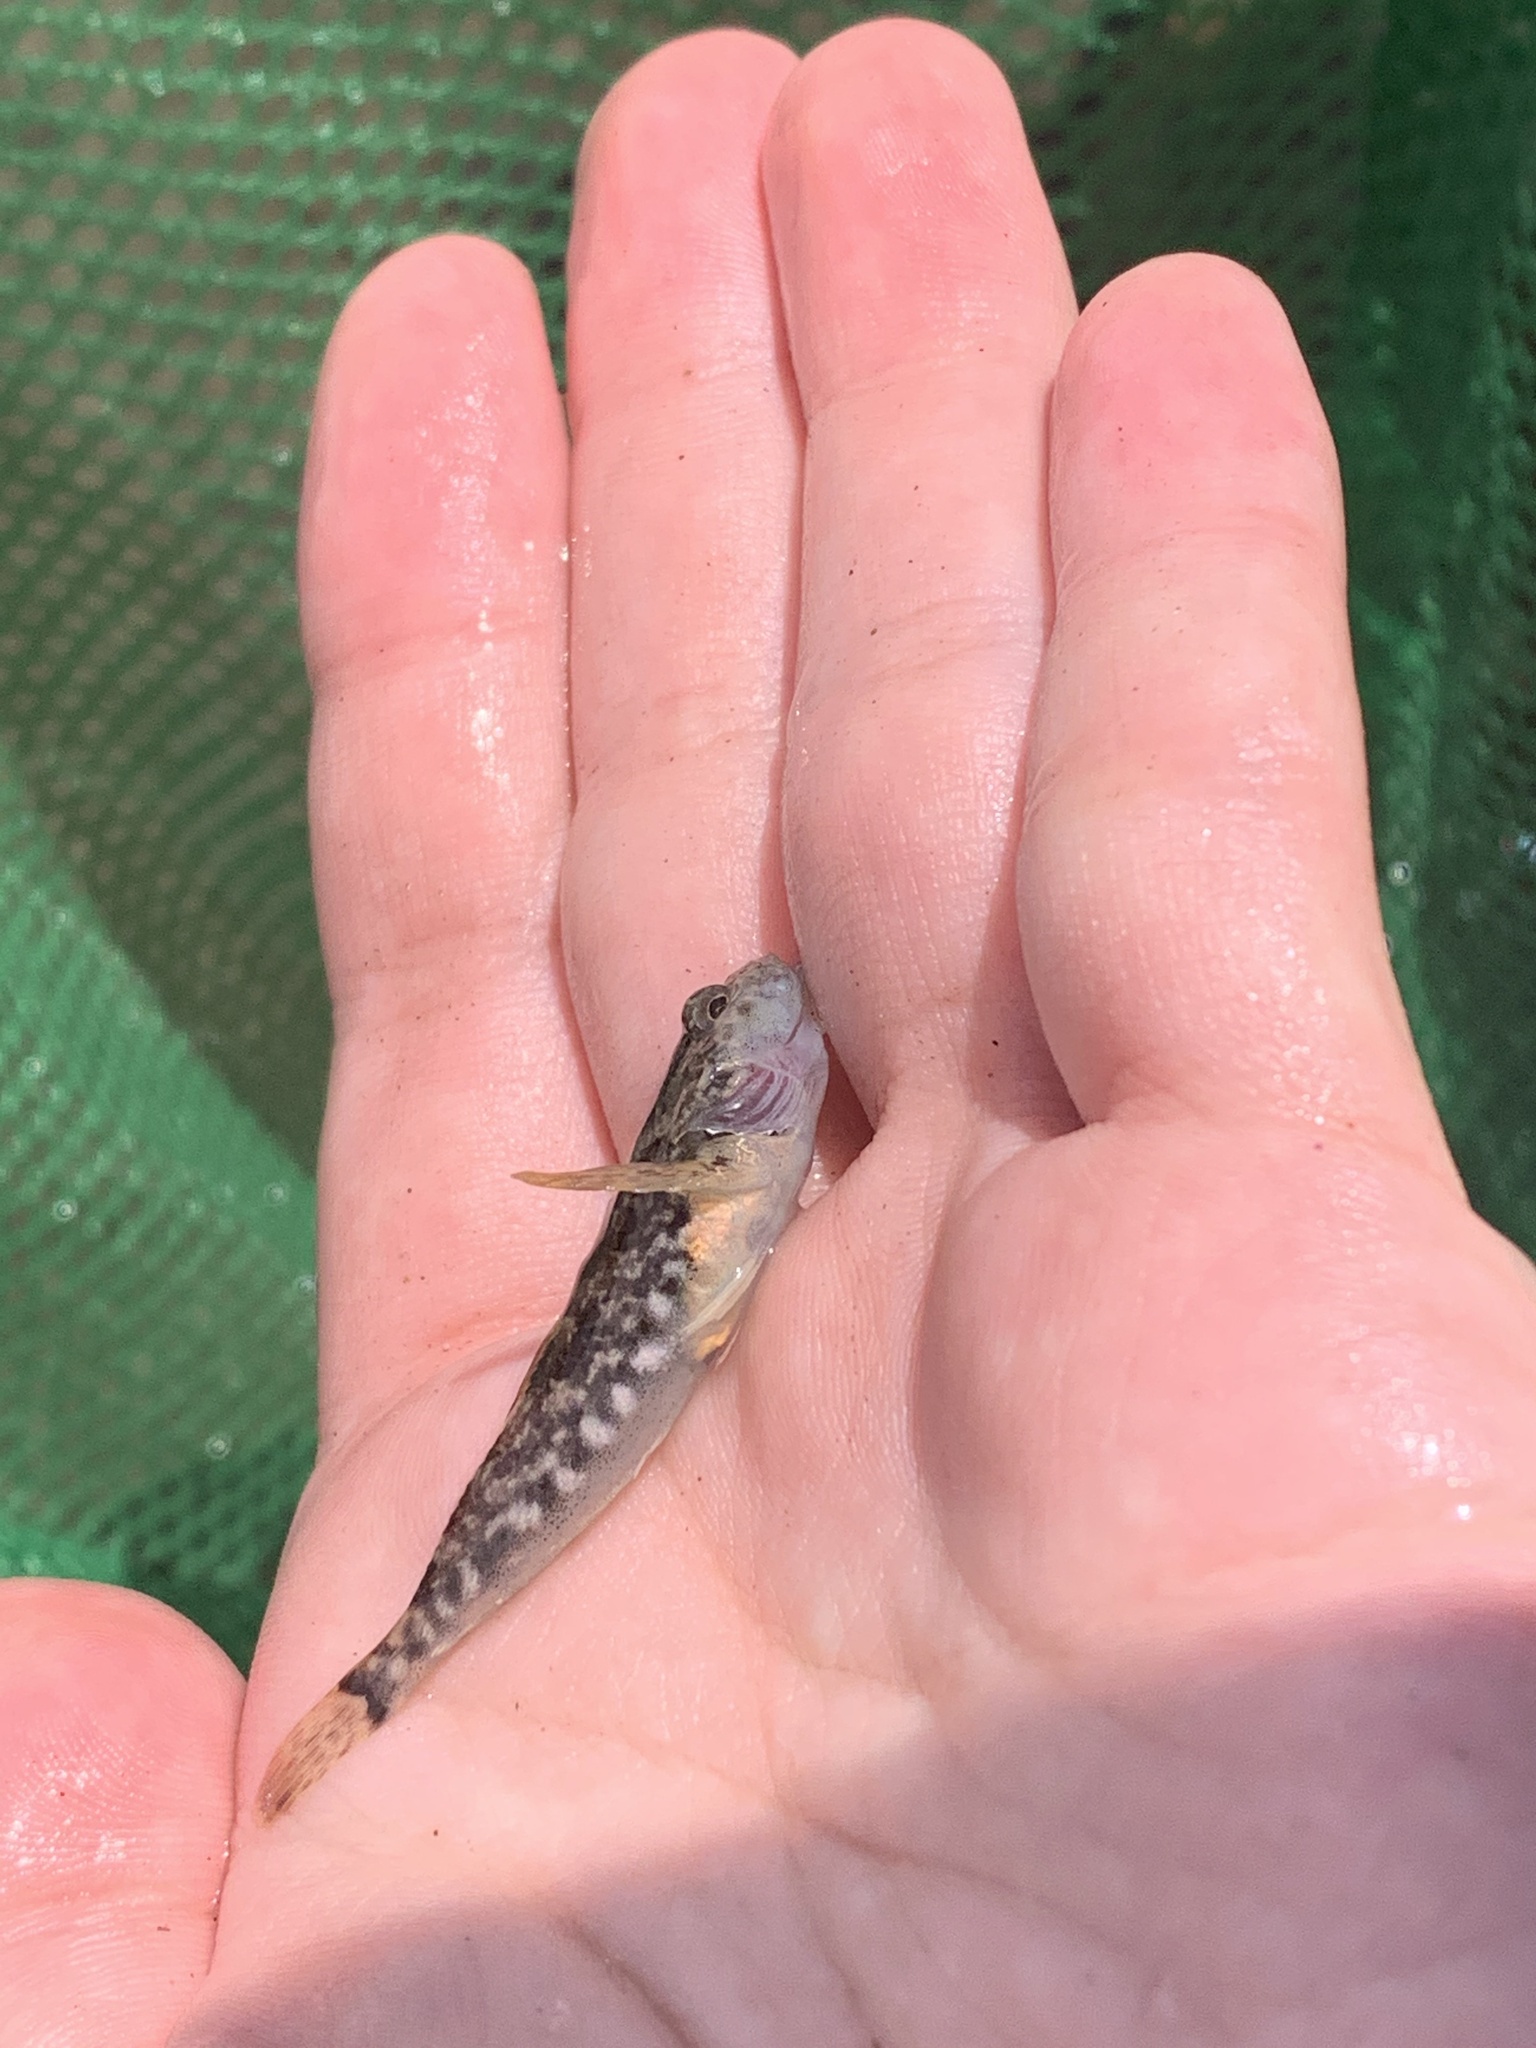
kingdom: Animalia
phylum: Chordata
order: Scorpaeniformes
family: Cottidae
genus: Cottus
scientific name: Cottus asper
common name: Prickly sculpin
